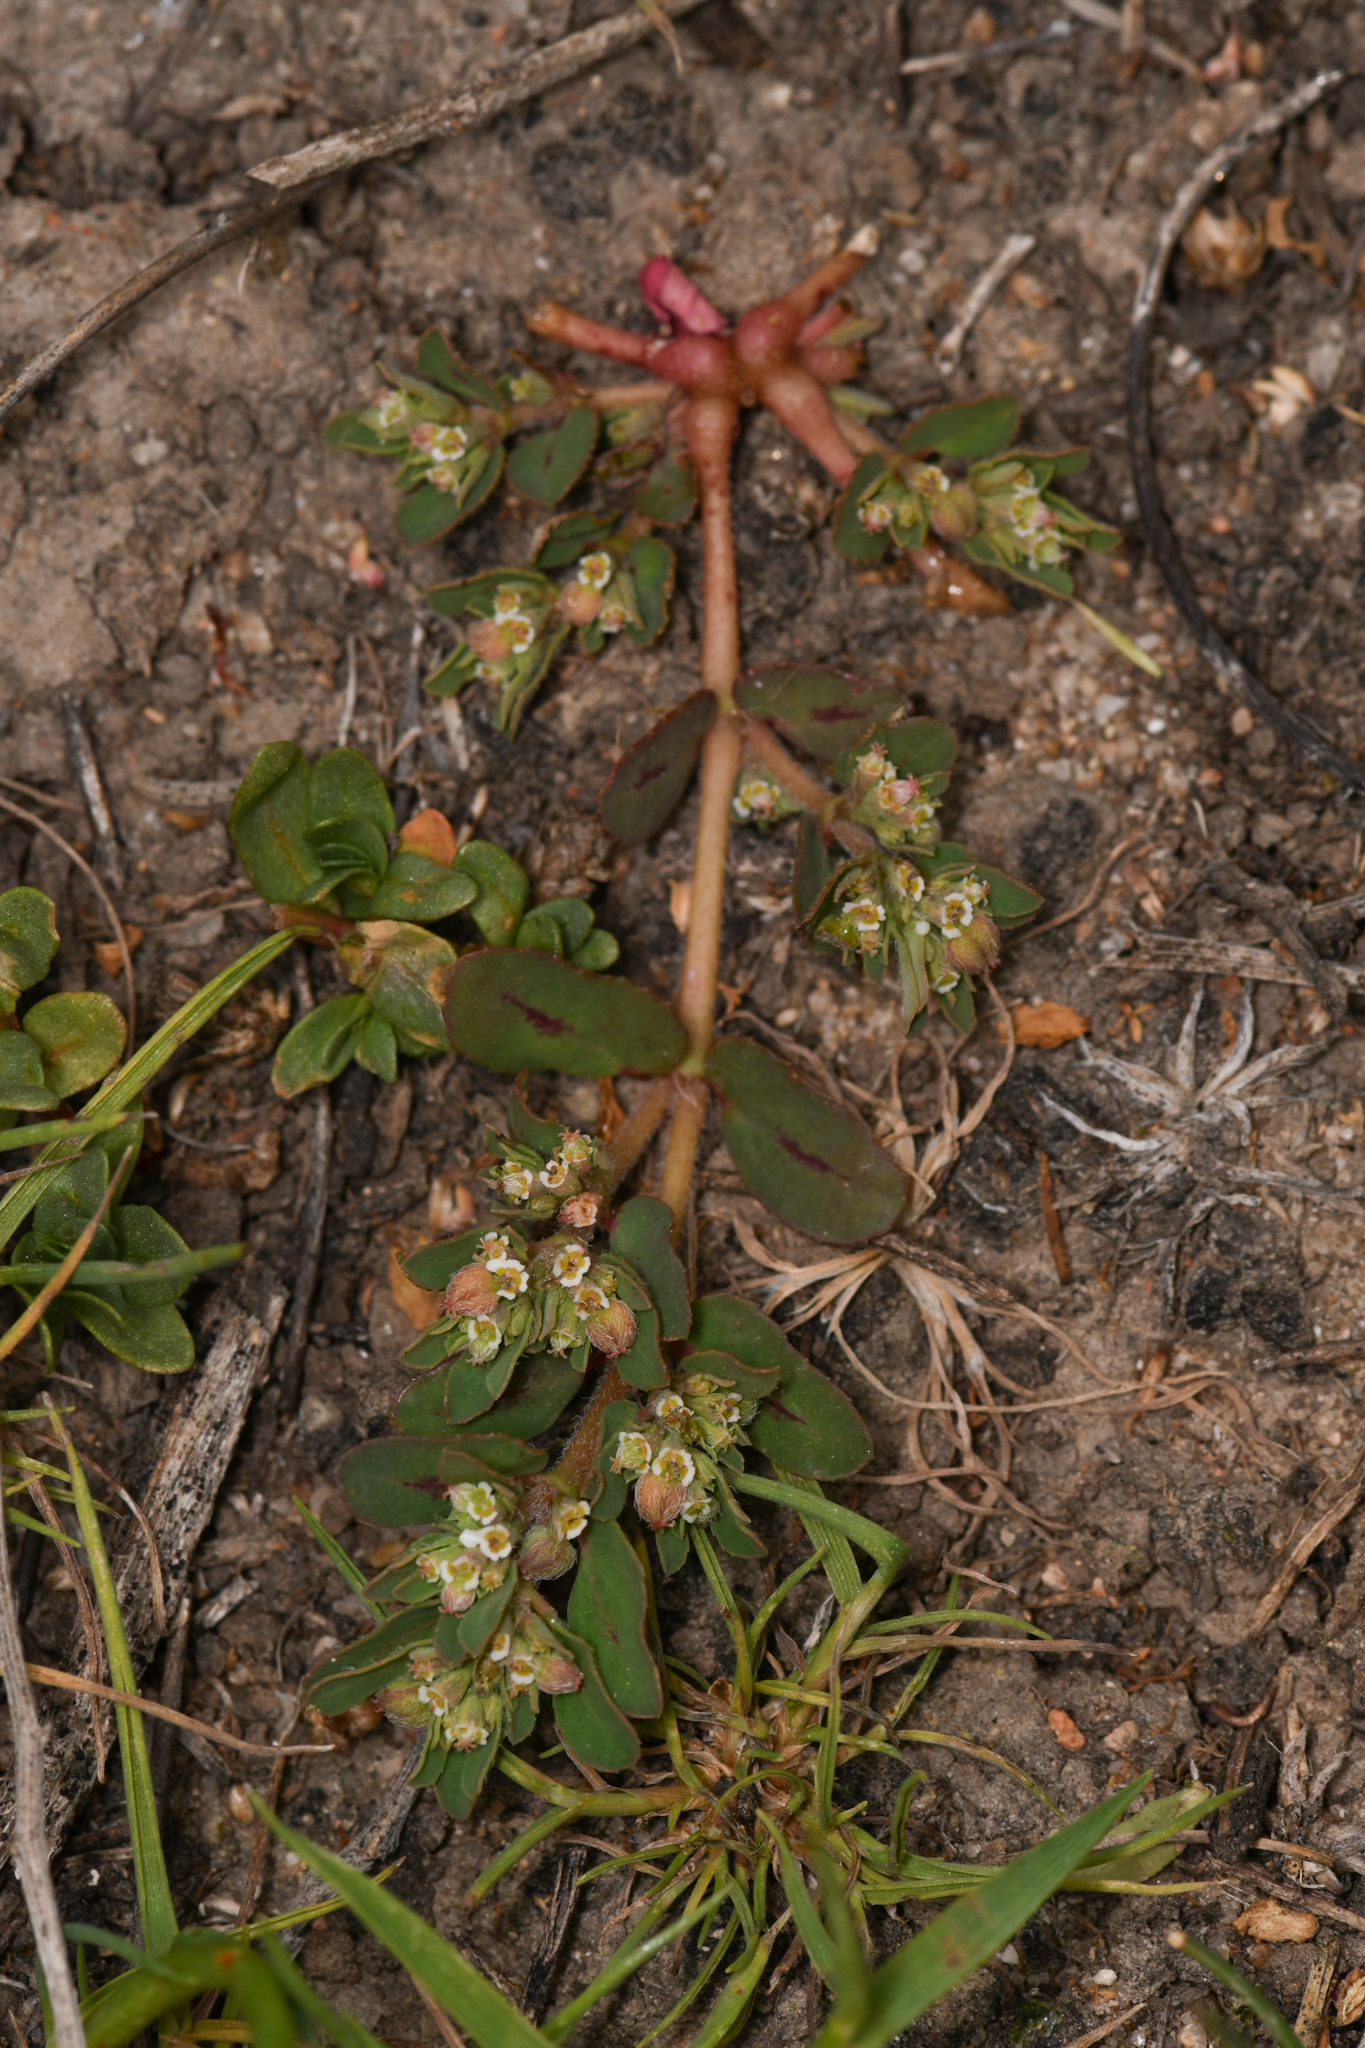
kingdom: Plantae
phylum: Tracheophyta
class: Magnoliopsida
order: Malpighiales
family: Euphorbiaceae
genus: Euphorbia
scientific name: Euphorbia maculata
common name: Spotted spurge
